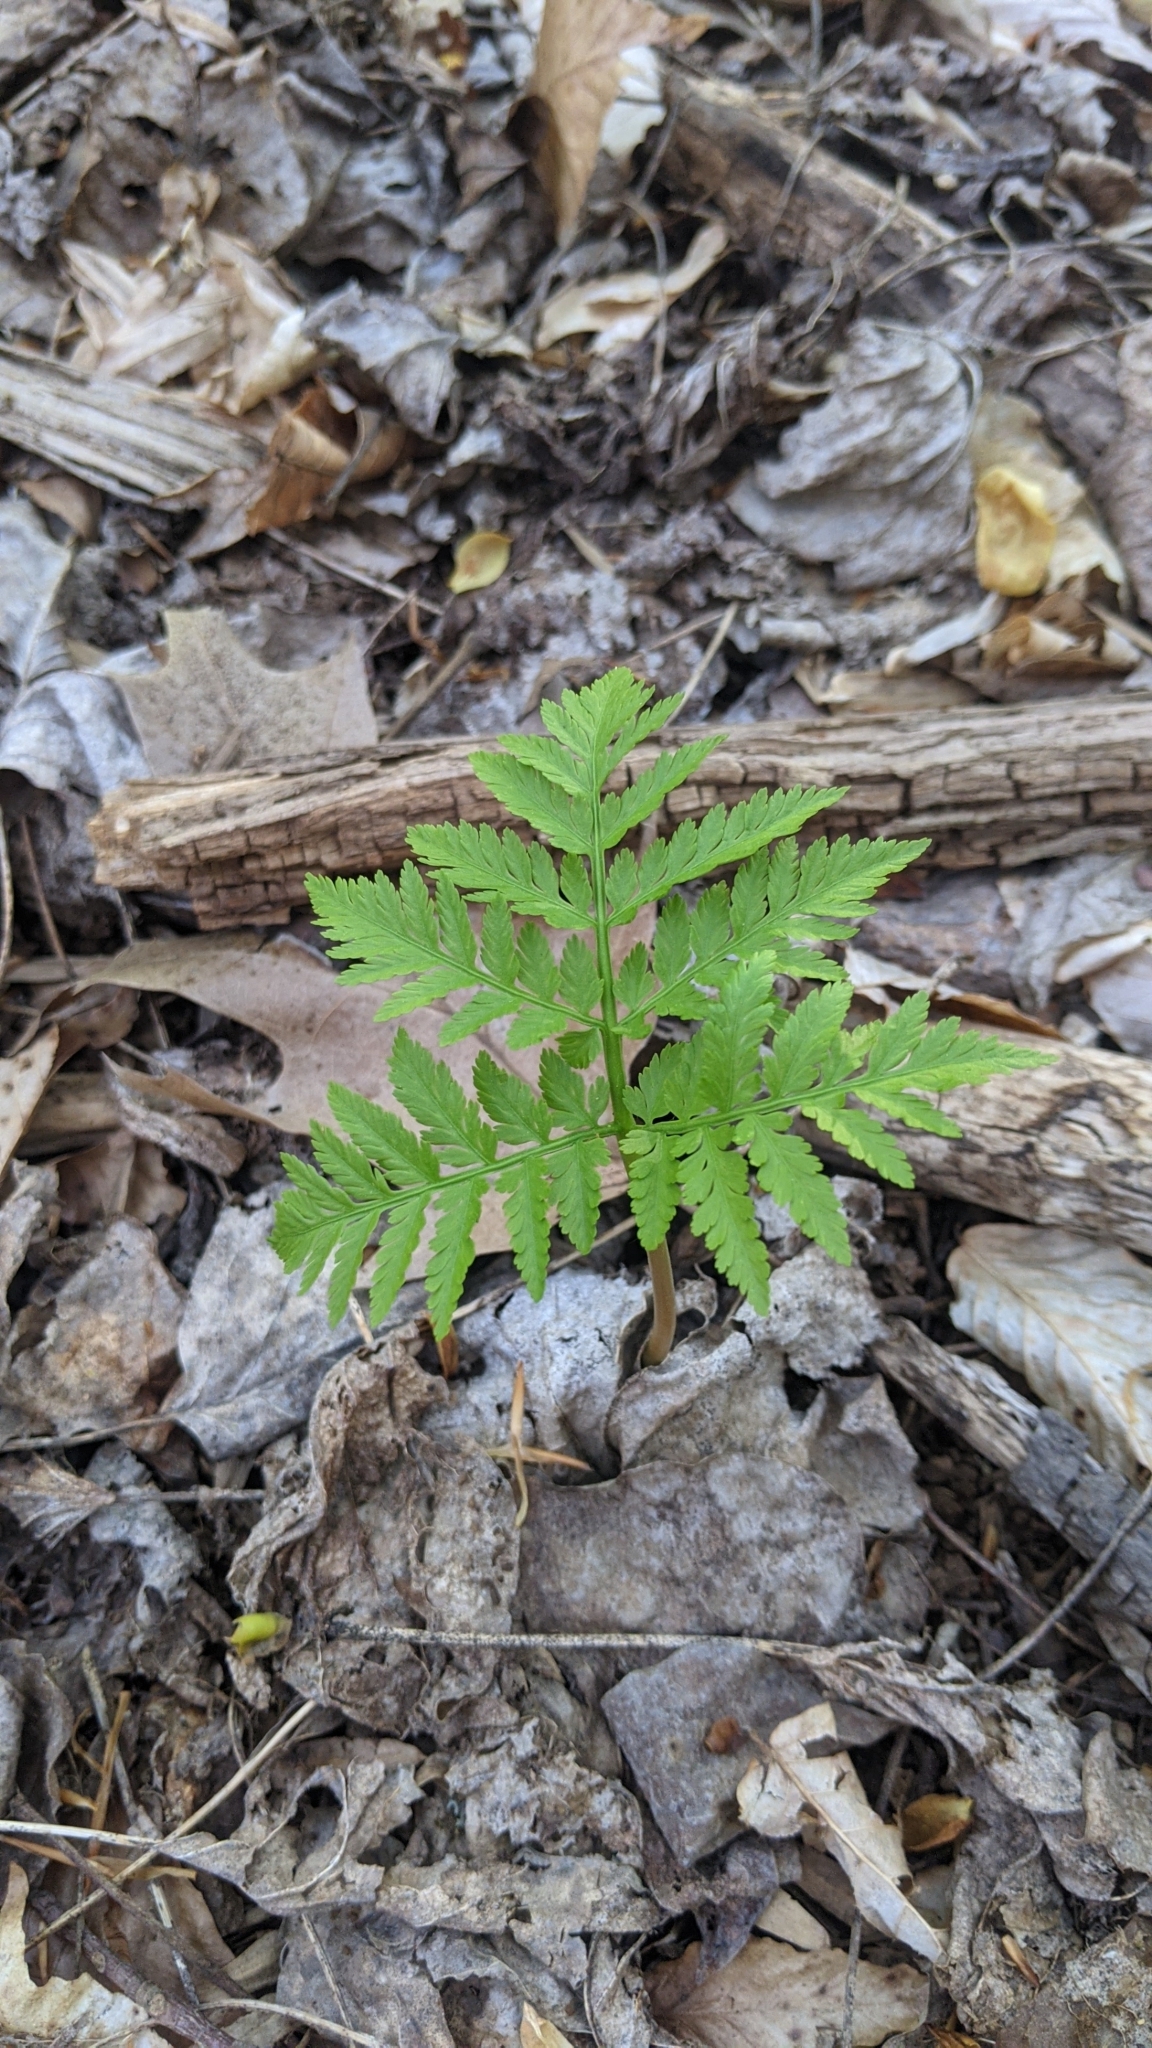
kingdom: Plantae
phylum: Tracheophyta
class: Polypodiopsida
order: Ophioglossales
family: Ophioglossaceae
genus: Botrypus
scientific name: Botrypus virginianus
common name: Common grapefern
